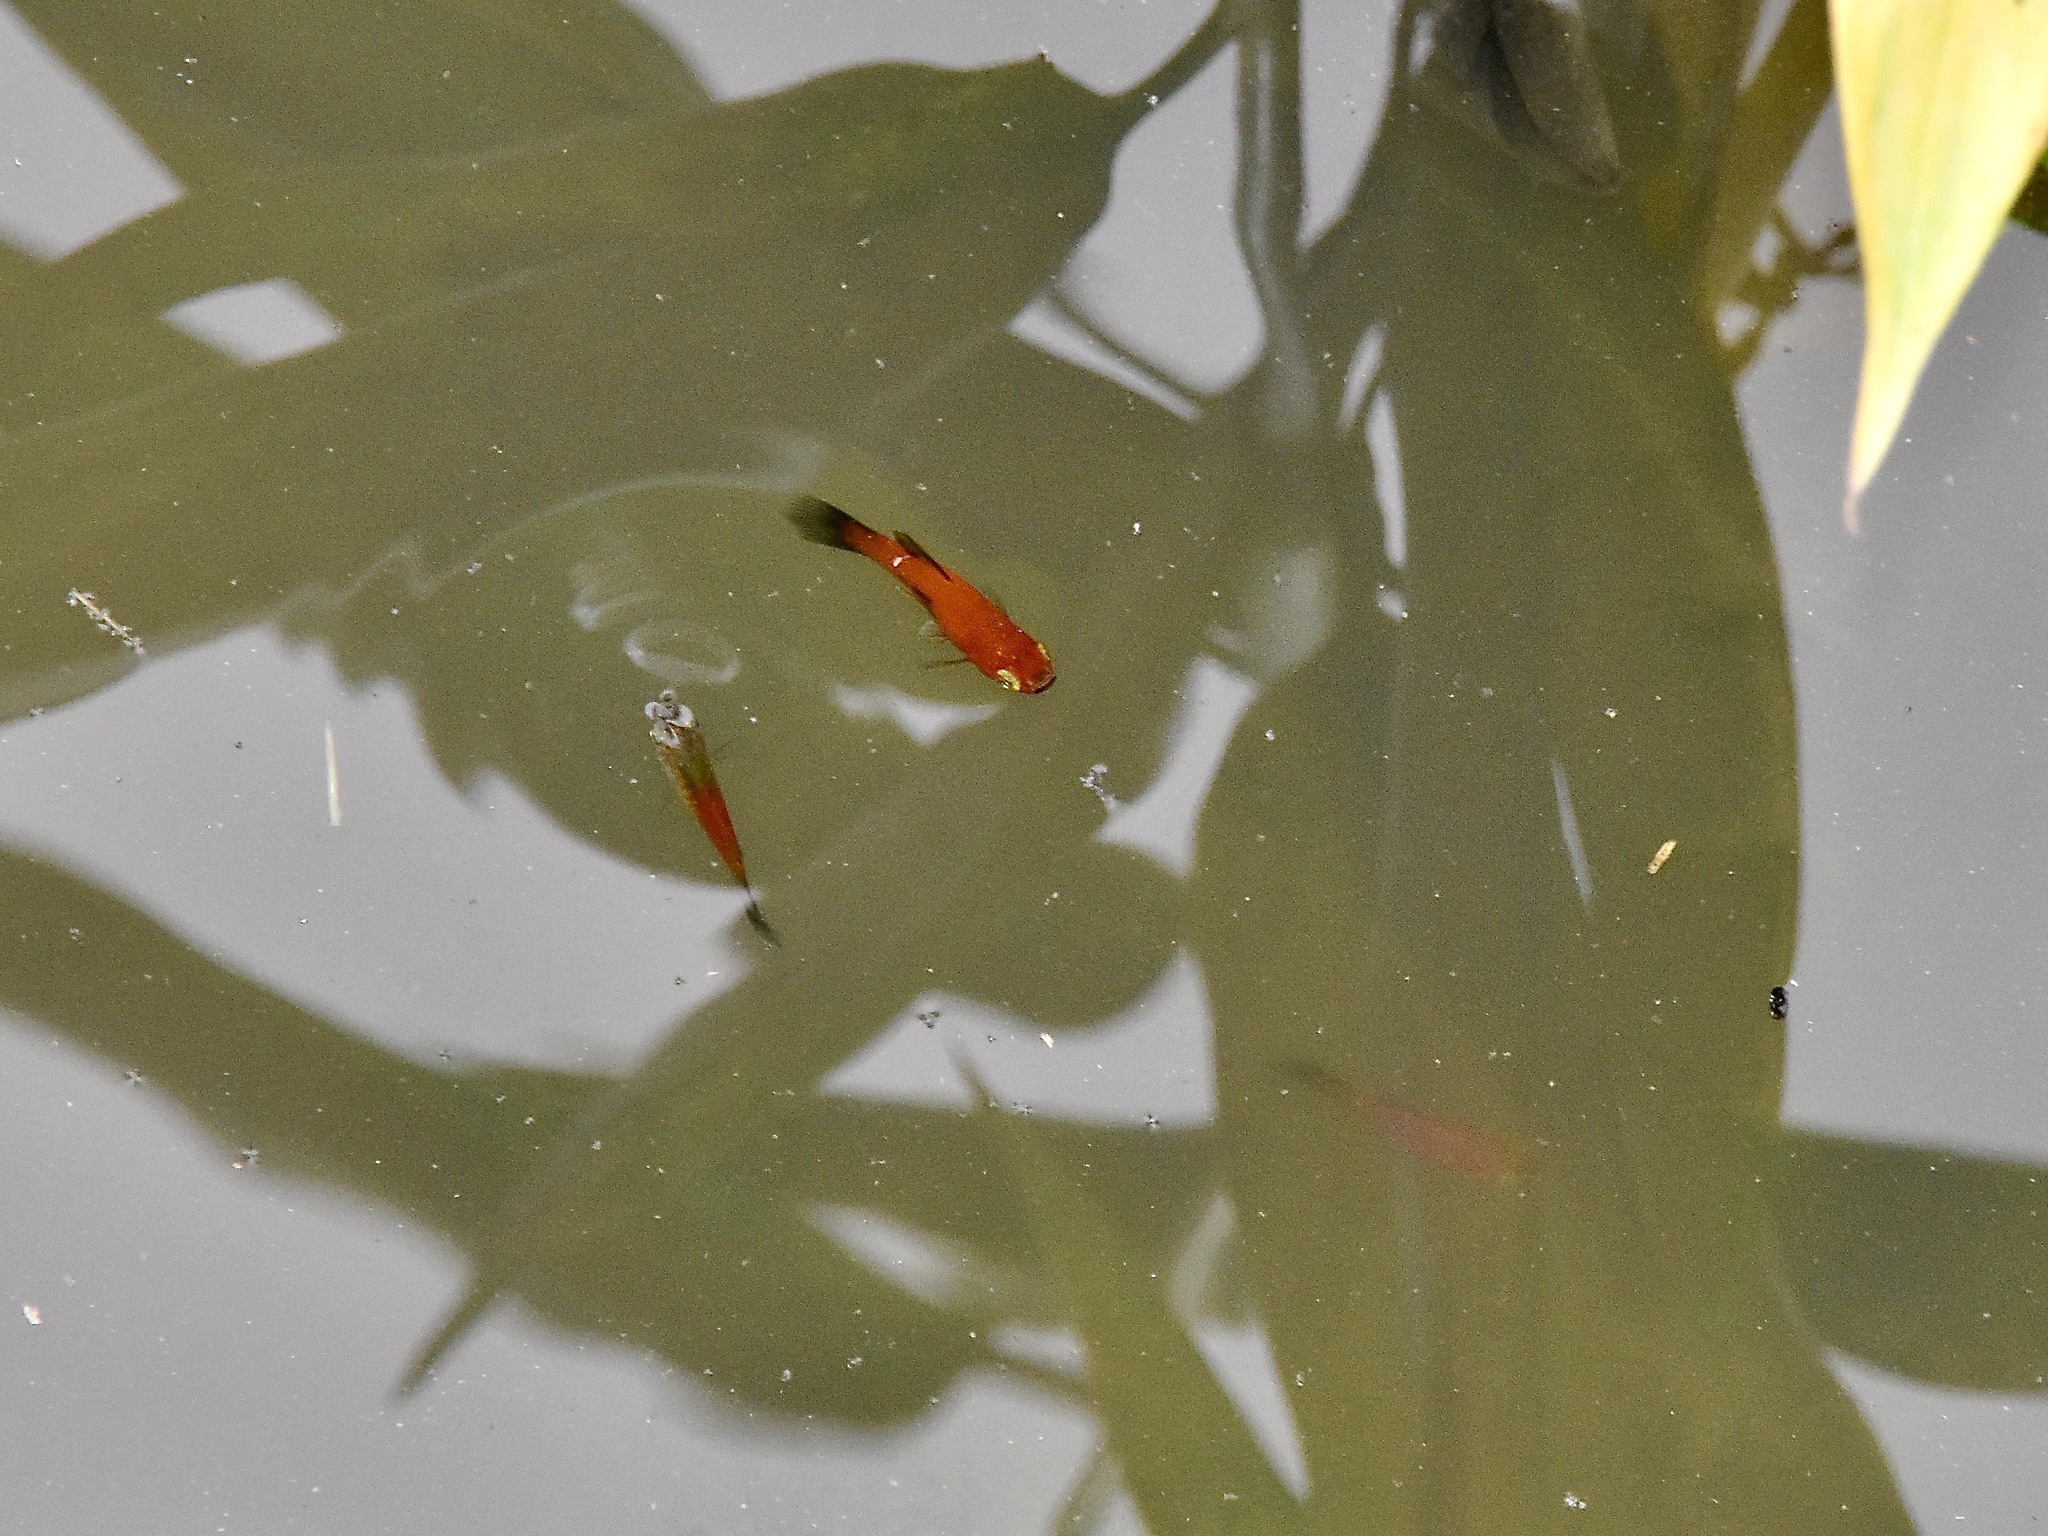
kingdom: Animalia
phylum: Chordata
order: Cyprinodontiformes
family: Poeciliidae
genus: Xiphophorus
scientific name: Xiphophorus maculatus
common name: Southern platyfish
